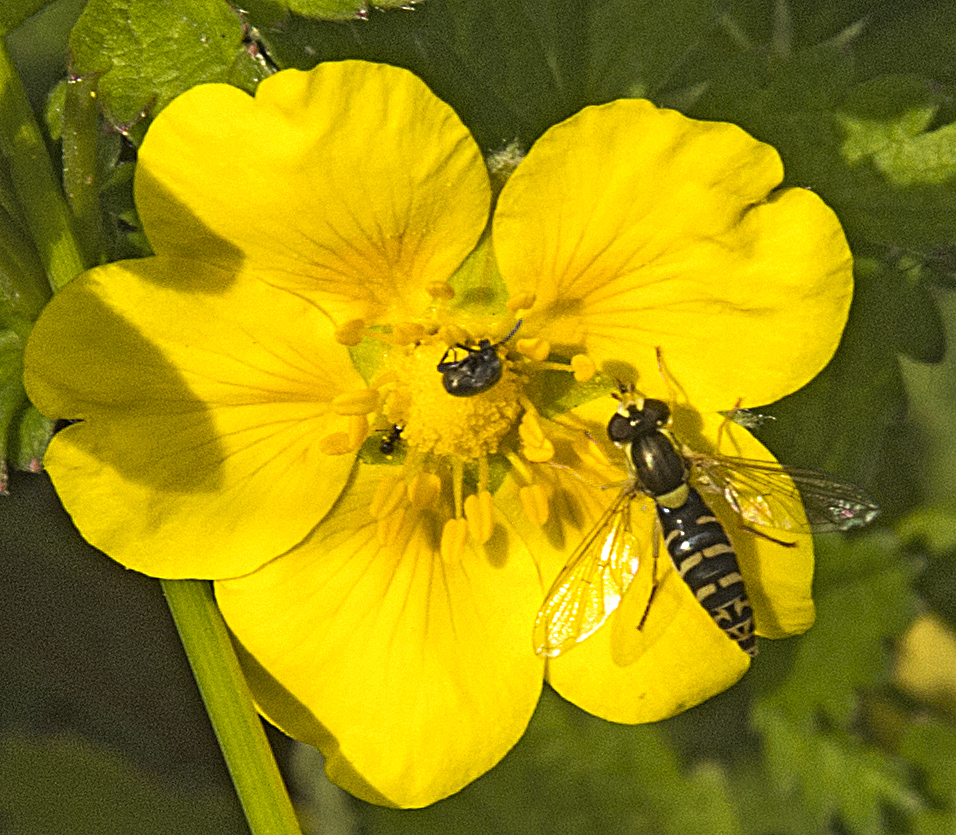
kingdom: Animalia
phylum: Arthropoda
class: Insecta
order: Diptera
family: Syrphidae
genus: Sphaerophoria
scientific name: Sphaerophoria
